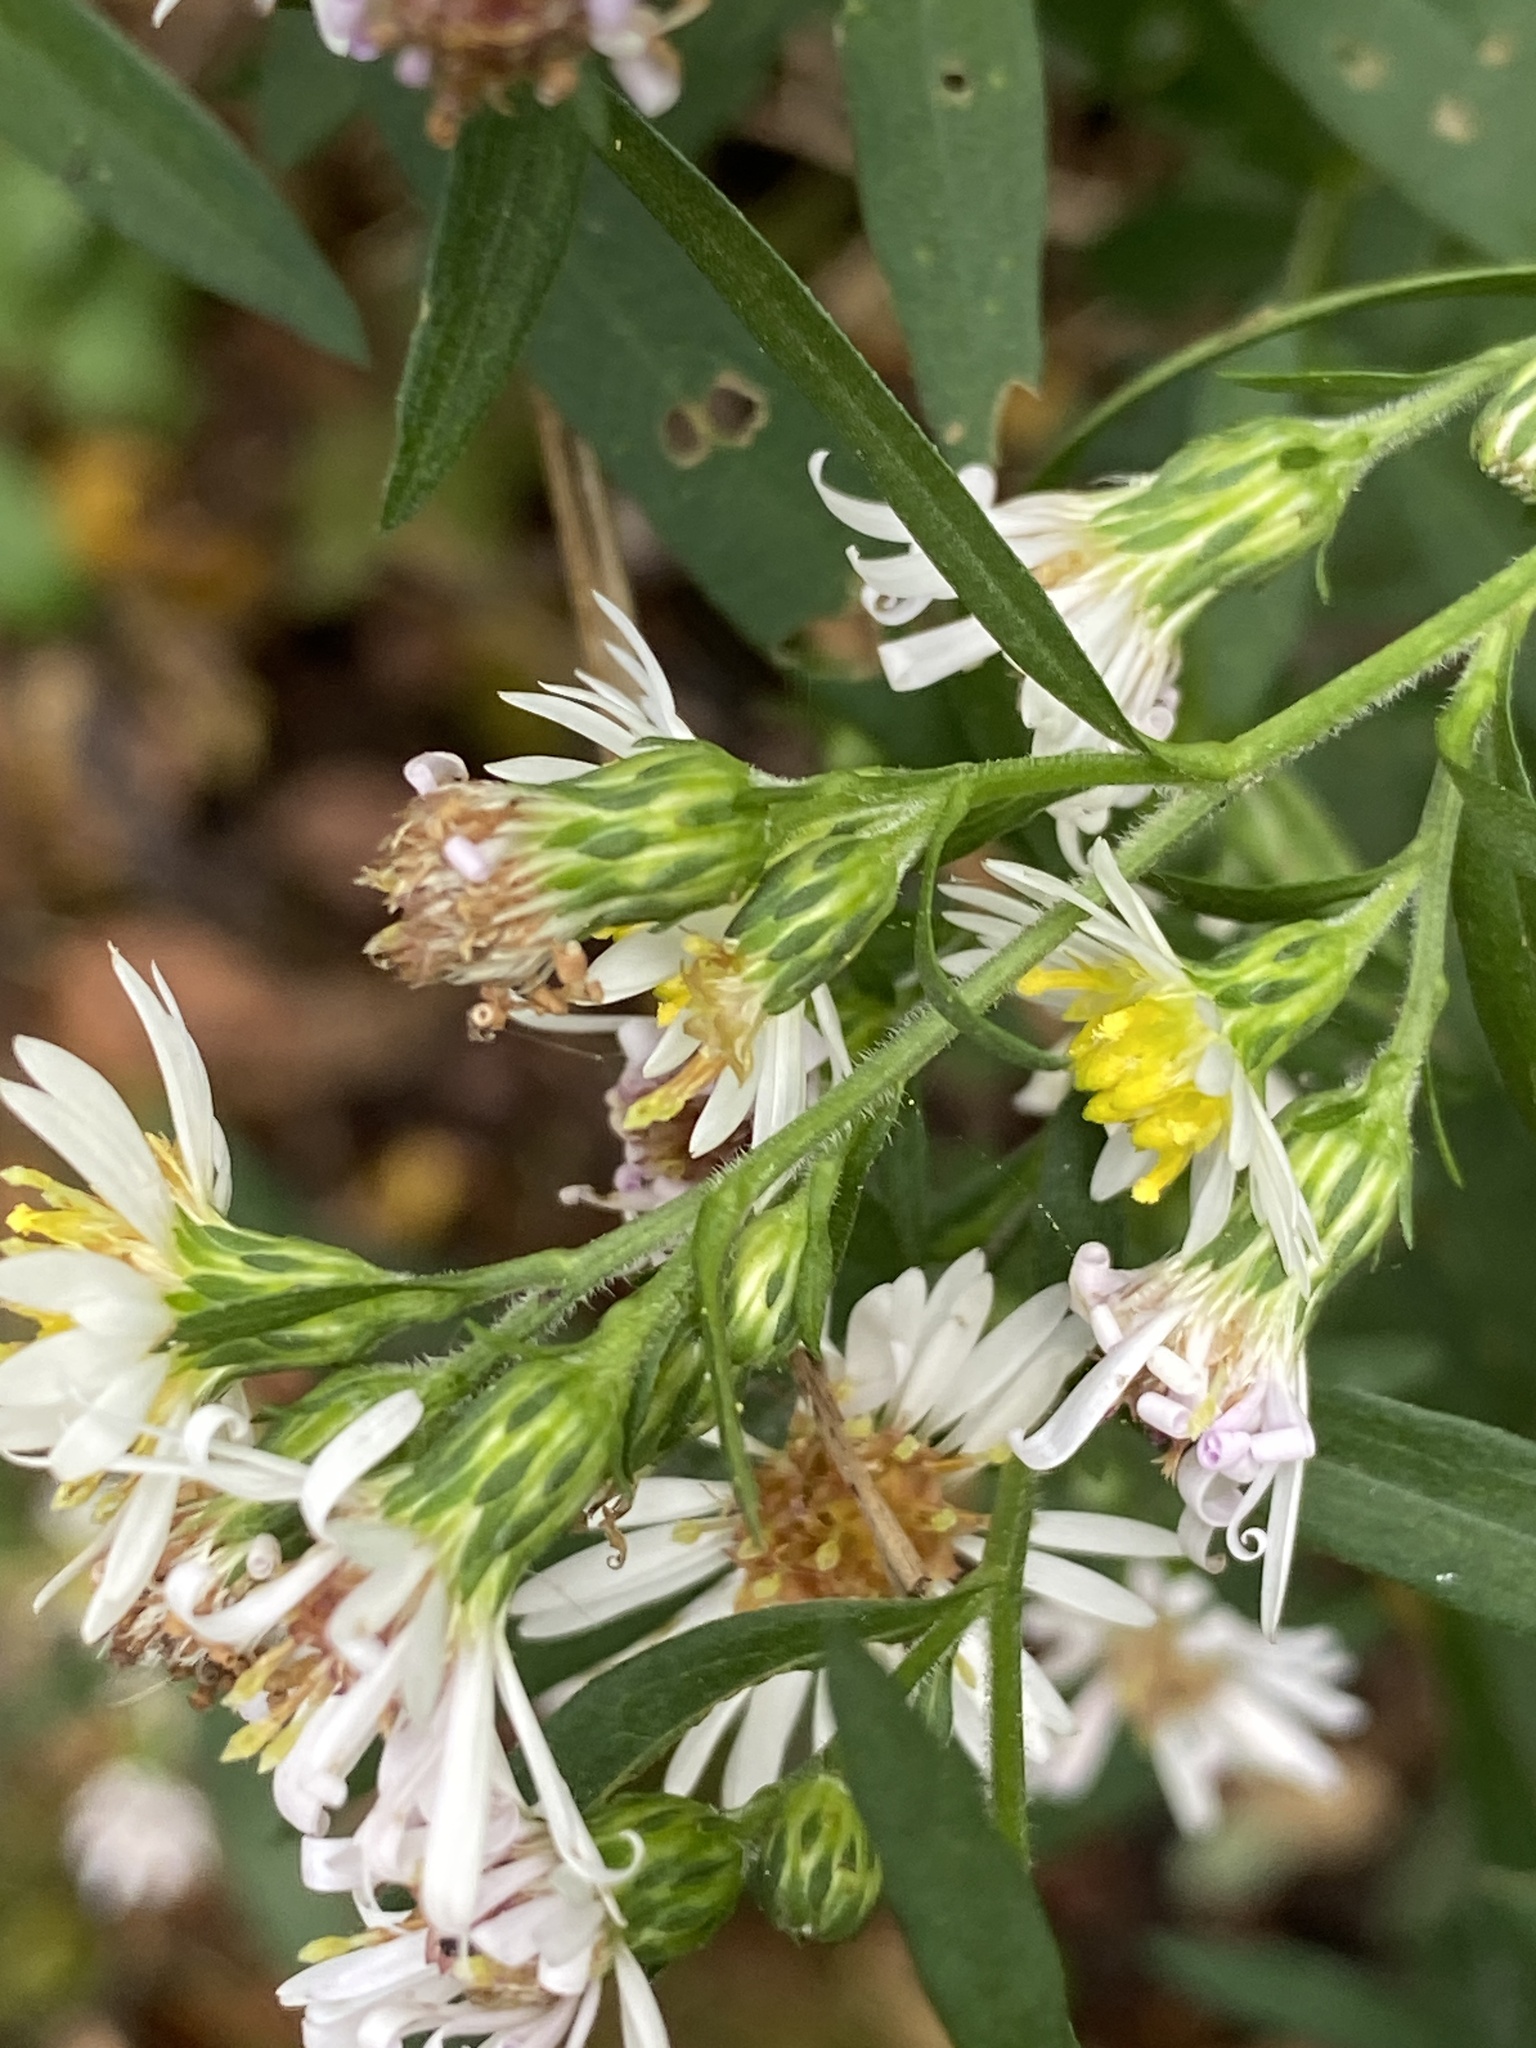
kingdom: Plantae
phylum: Tracheophyta
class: Magnoliopsida
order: Asterales
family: Asteraceae
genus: Symphyotrichum
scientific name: Symphyotrichum lanceolatum
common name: Panicled aster
